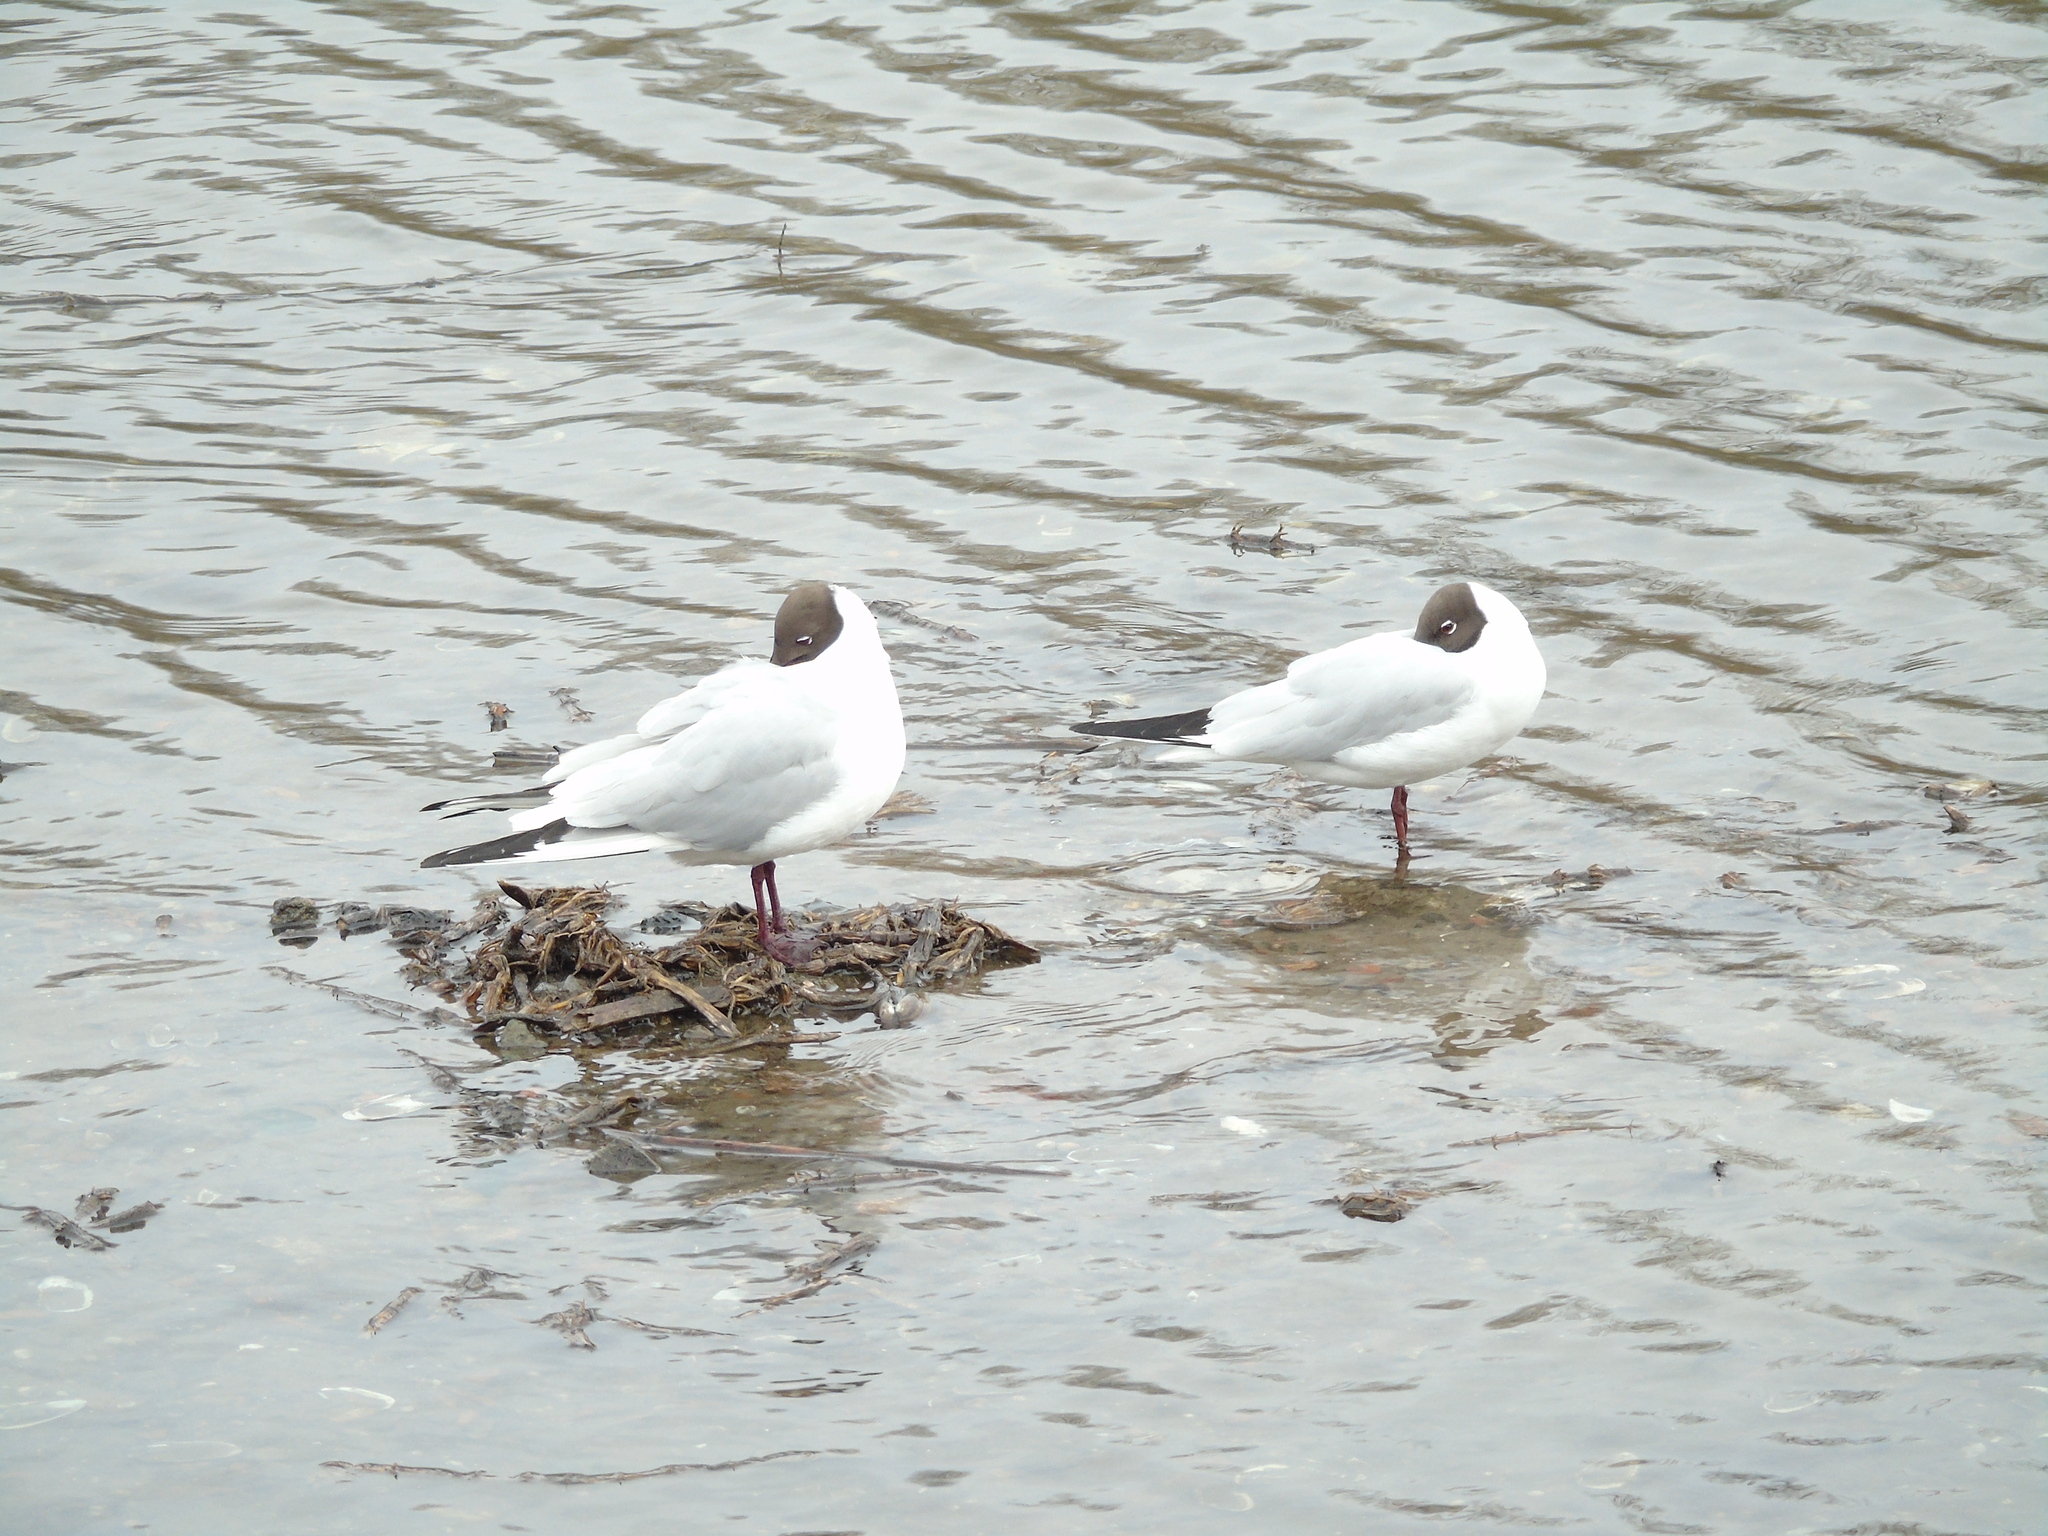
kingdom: Animalia
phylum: Chordata
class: Aves
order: Charadriiformes
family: Laridae
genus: Chroicocephalus
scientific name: Chroicocephalus ridibundus
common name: Black-headed gull
